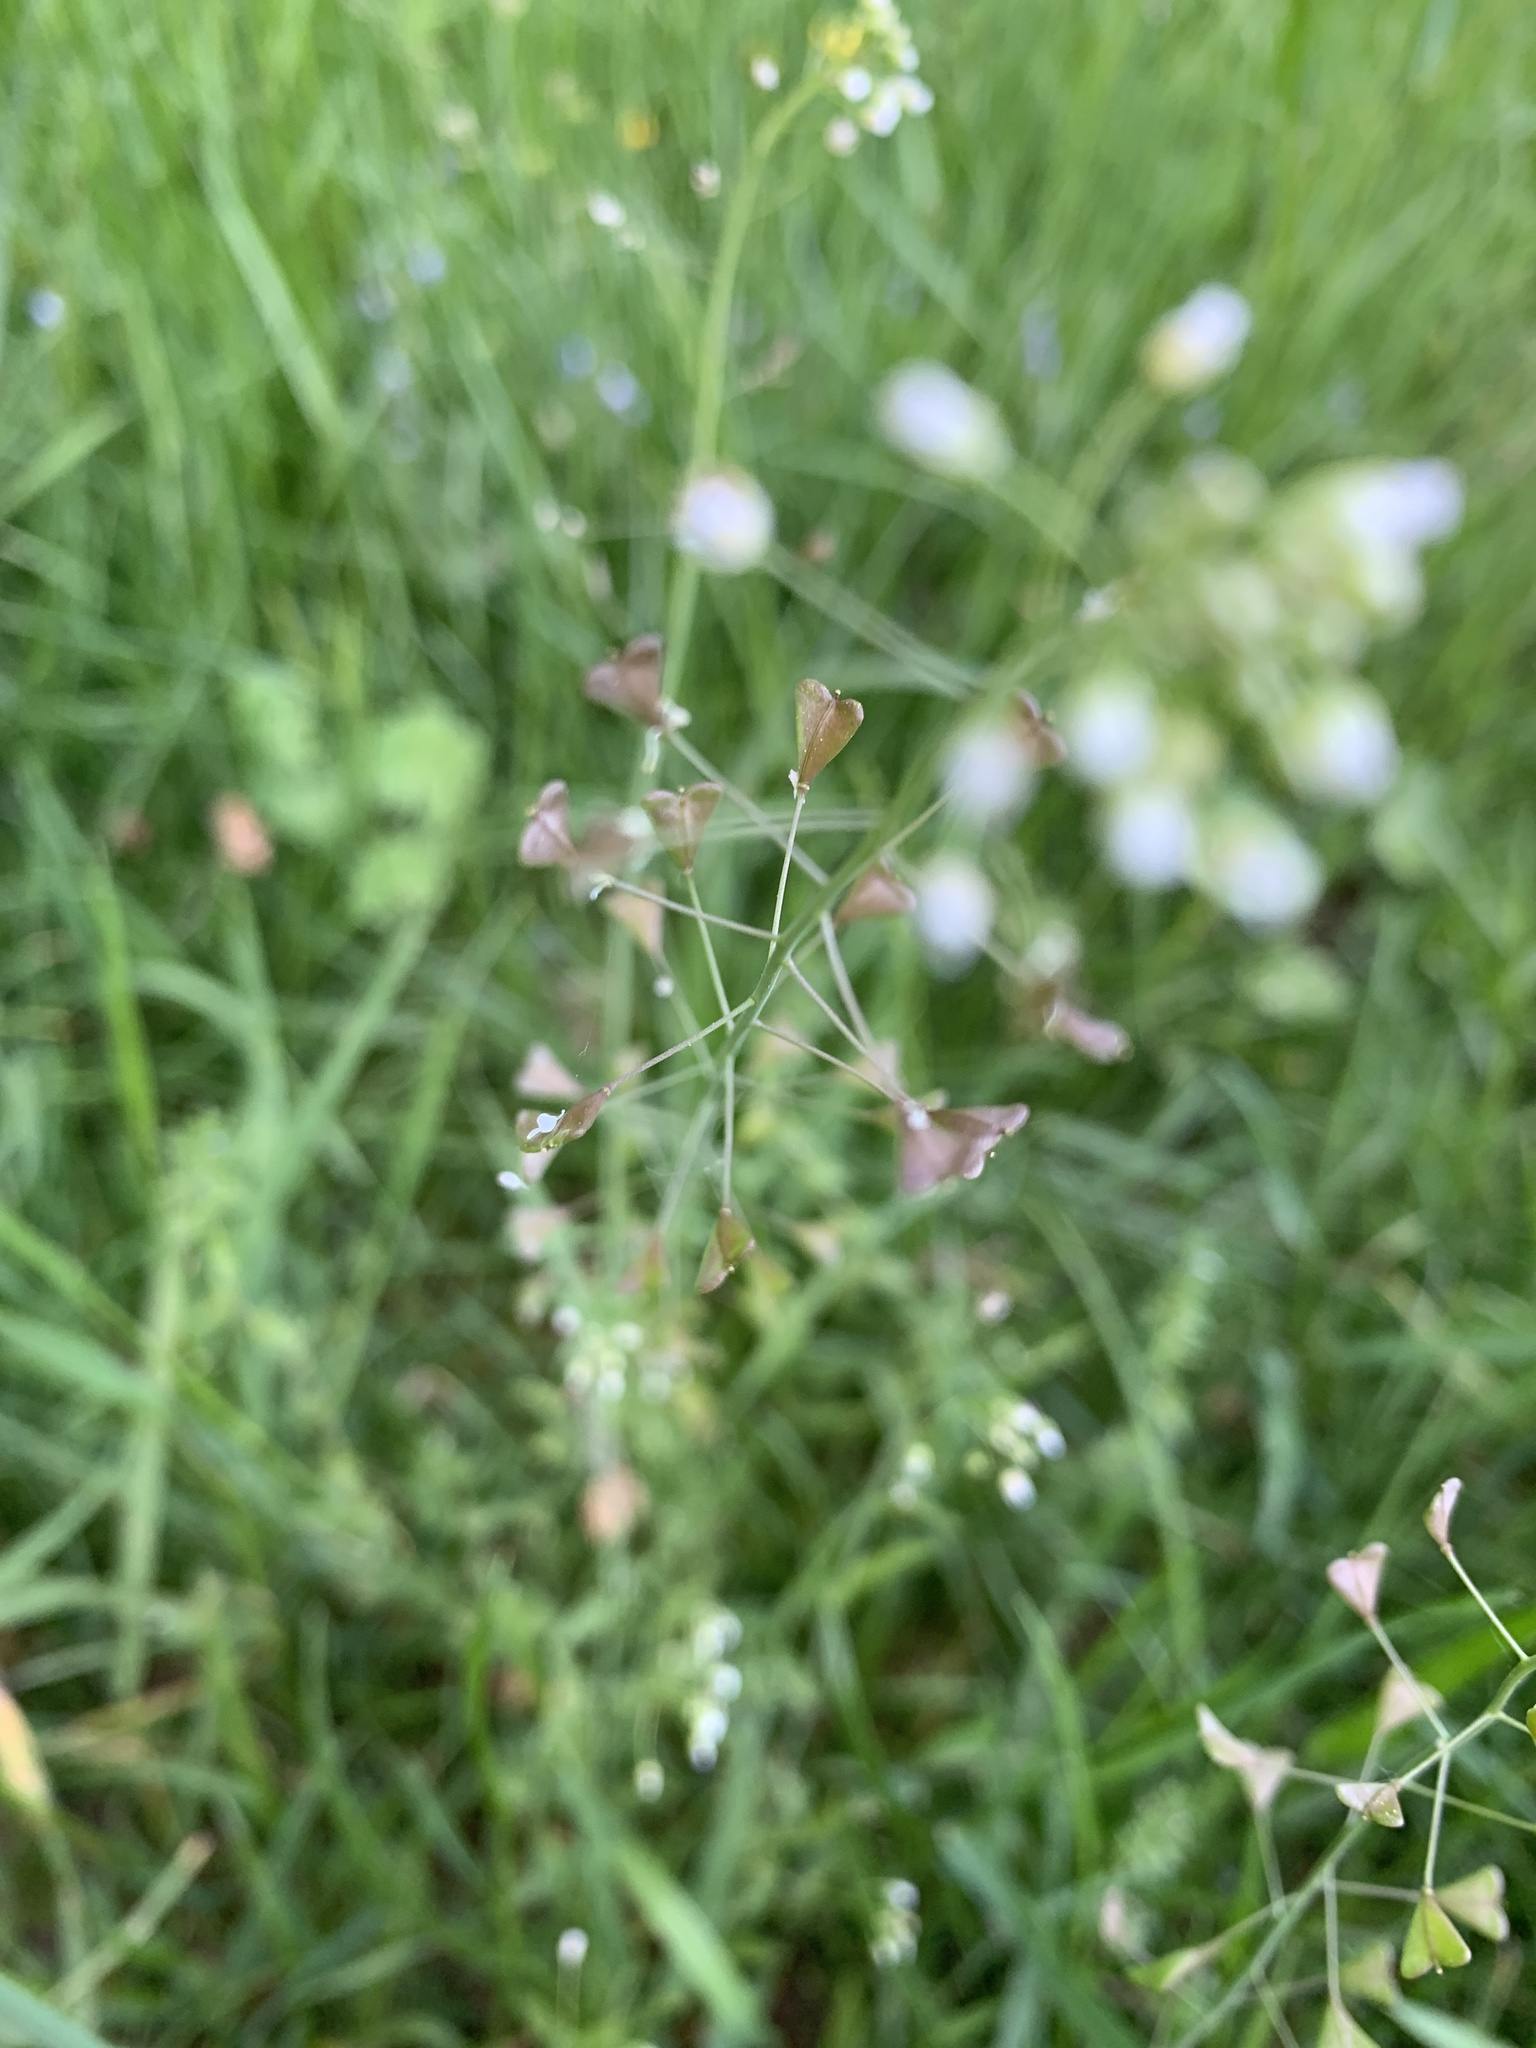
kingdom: Plantae
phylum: Tracheophyta
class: Magnoliopsida
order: Brassicales
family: Brassicaceae
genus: Capsella
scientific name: Capsella bursa-pastoris
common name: Shepherd's purse
